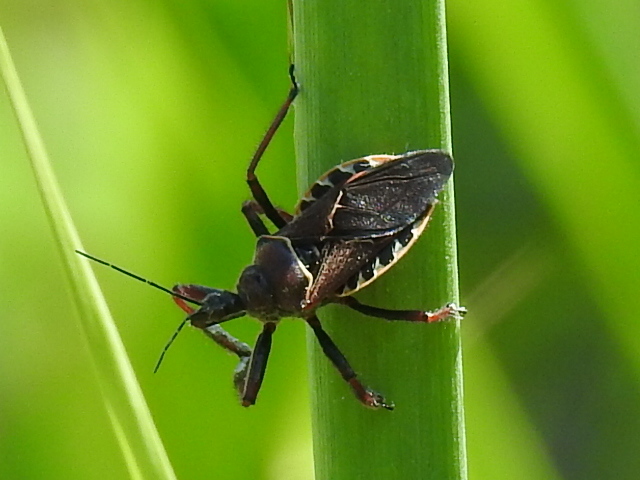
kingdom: Animalia
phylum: Arthropoda
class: Insecta
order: Hemiptera
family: Reduviidae
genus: Apiomerus
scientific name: Apiomerus spissipes
